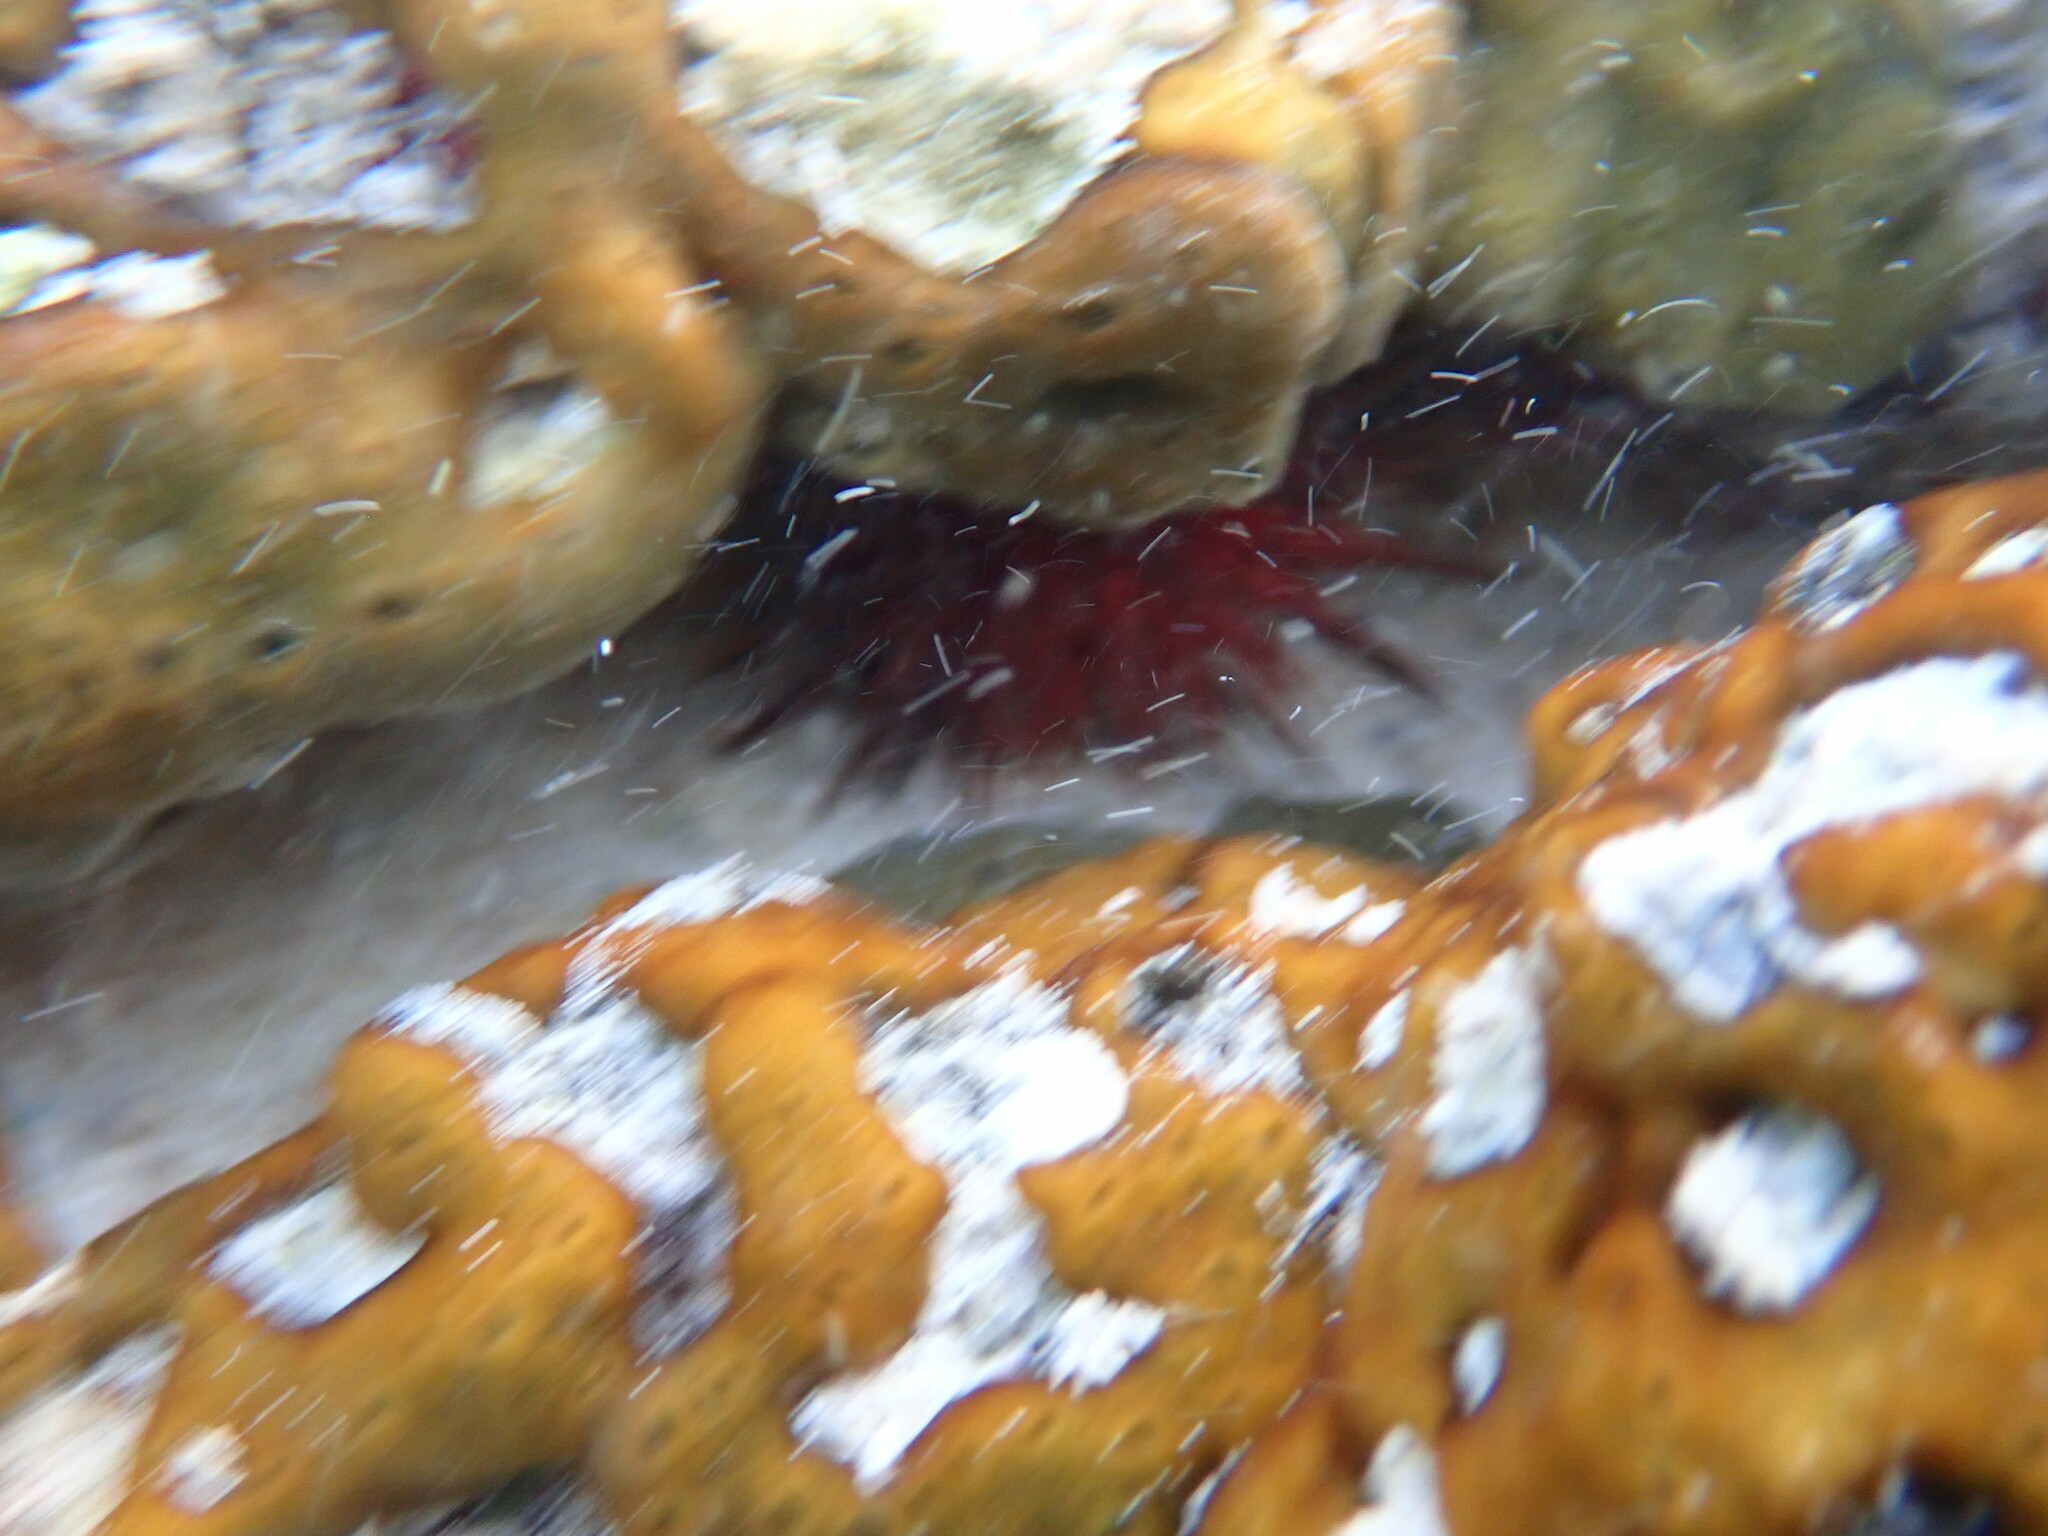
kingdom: Animalia
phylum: Porifera
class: Demospongiae
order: Chondrillida
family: Chondrillidae
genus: Chondrilla
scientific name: Chondrilla nucula
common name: Chicken liver sponge
